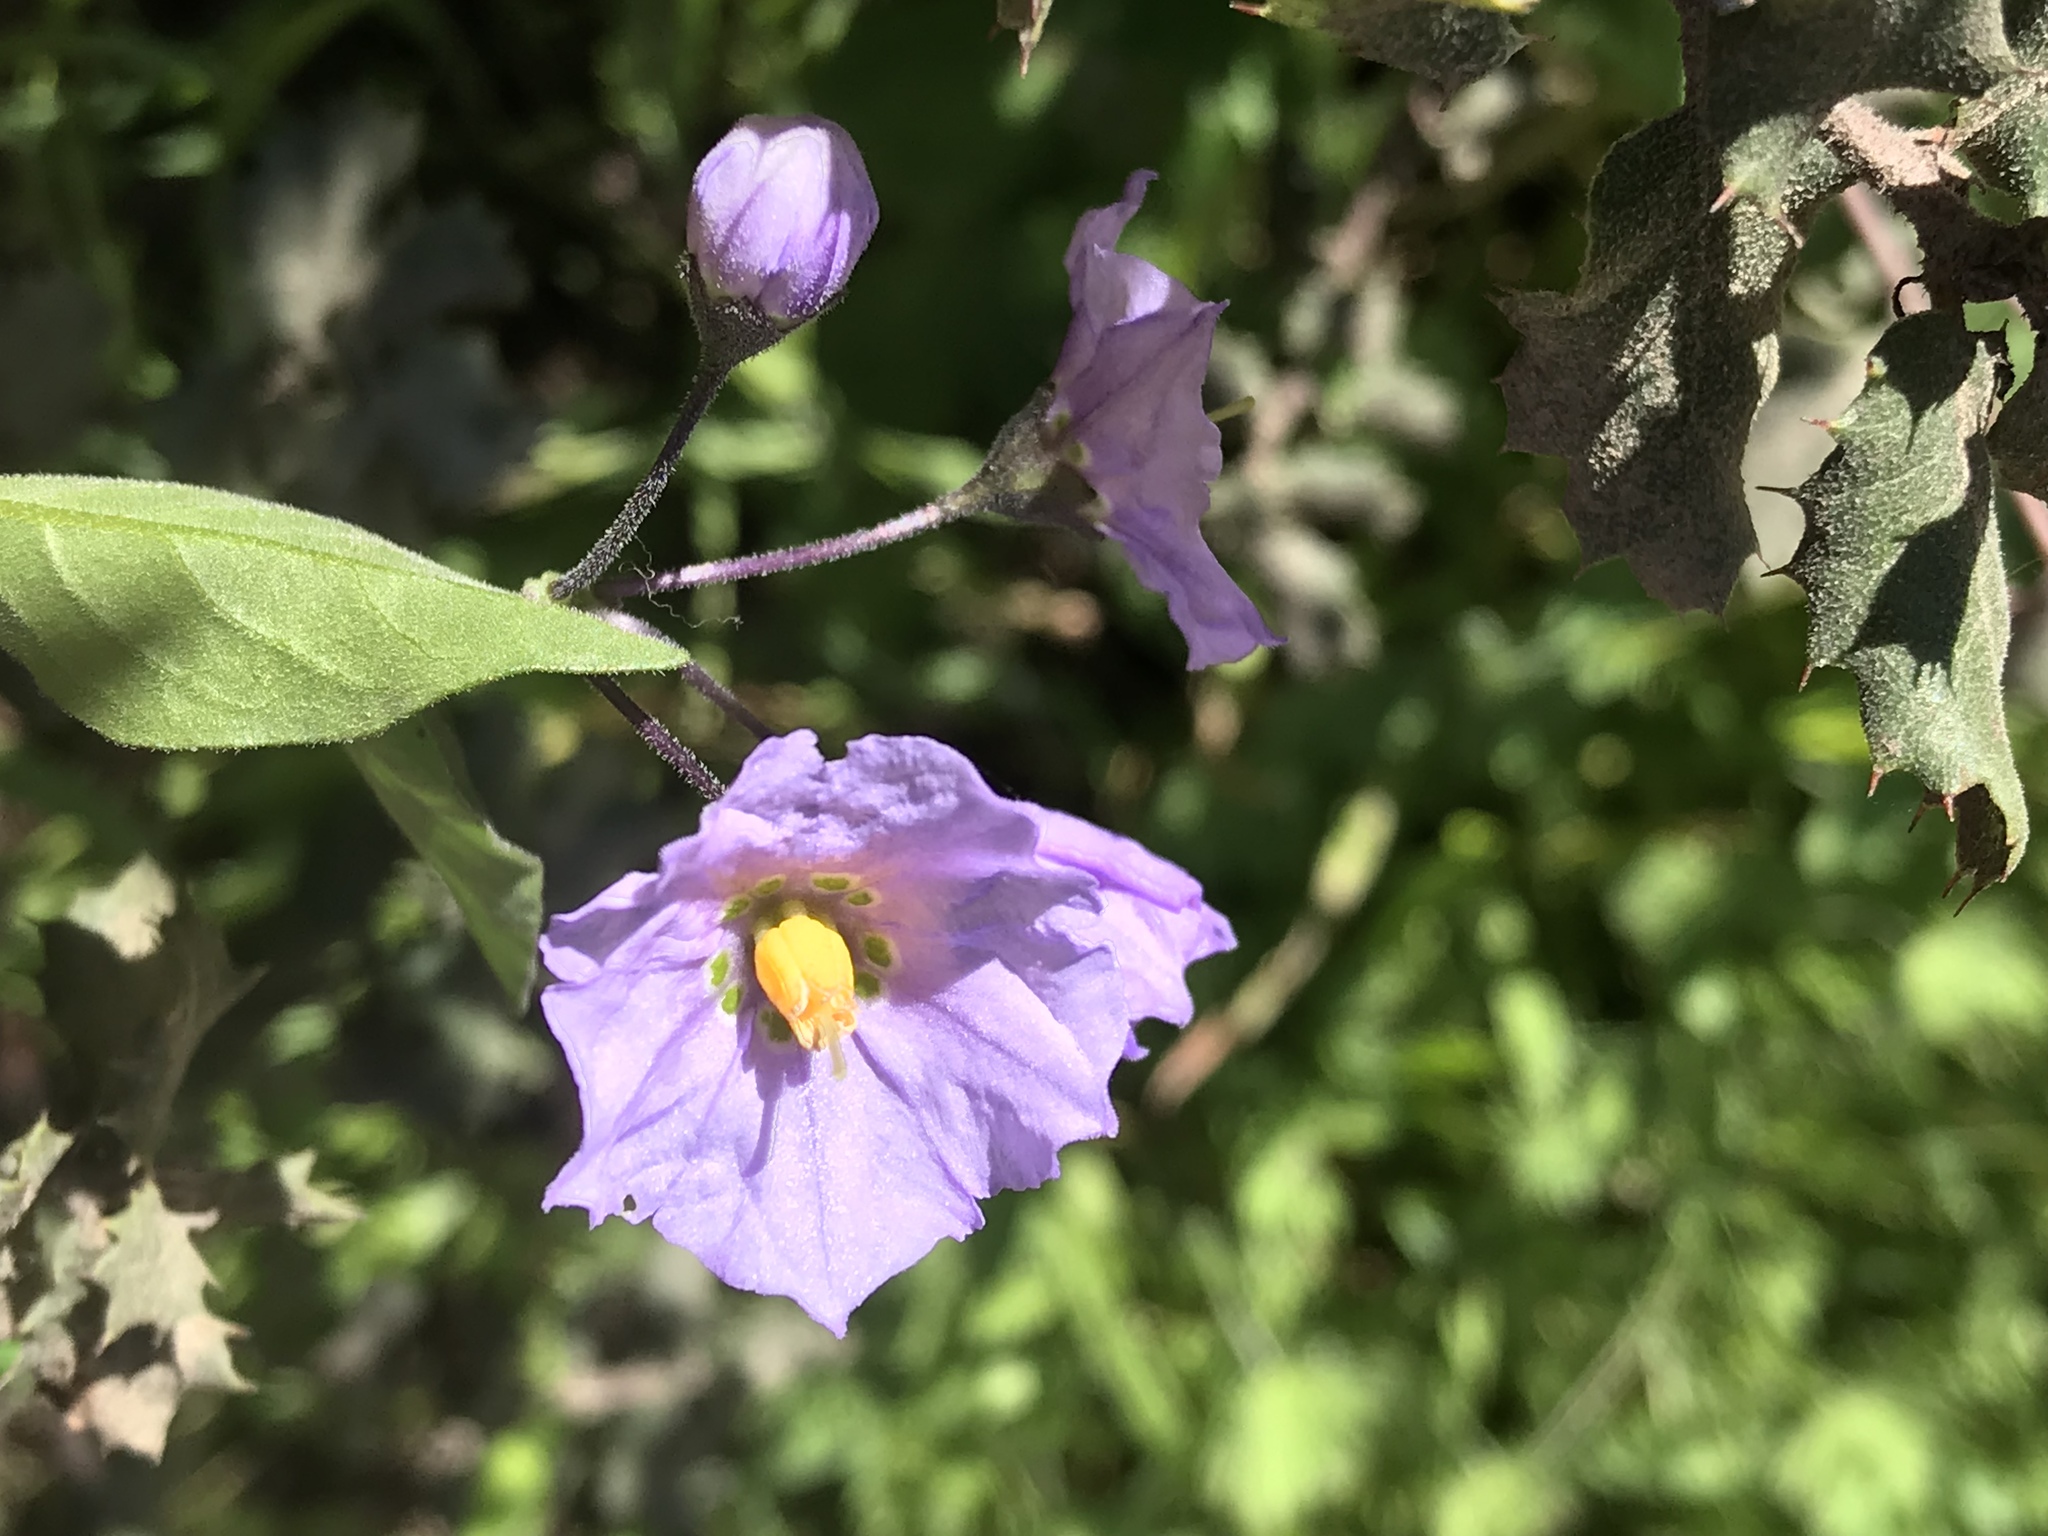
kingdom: Plantae
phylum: Tracheophyta
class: Magnoliopsida
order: Solanales
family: Solanaceae
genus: Solanum
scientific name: Solanum umbelliferum
